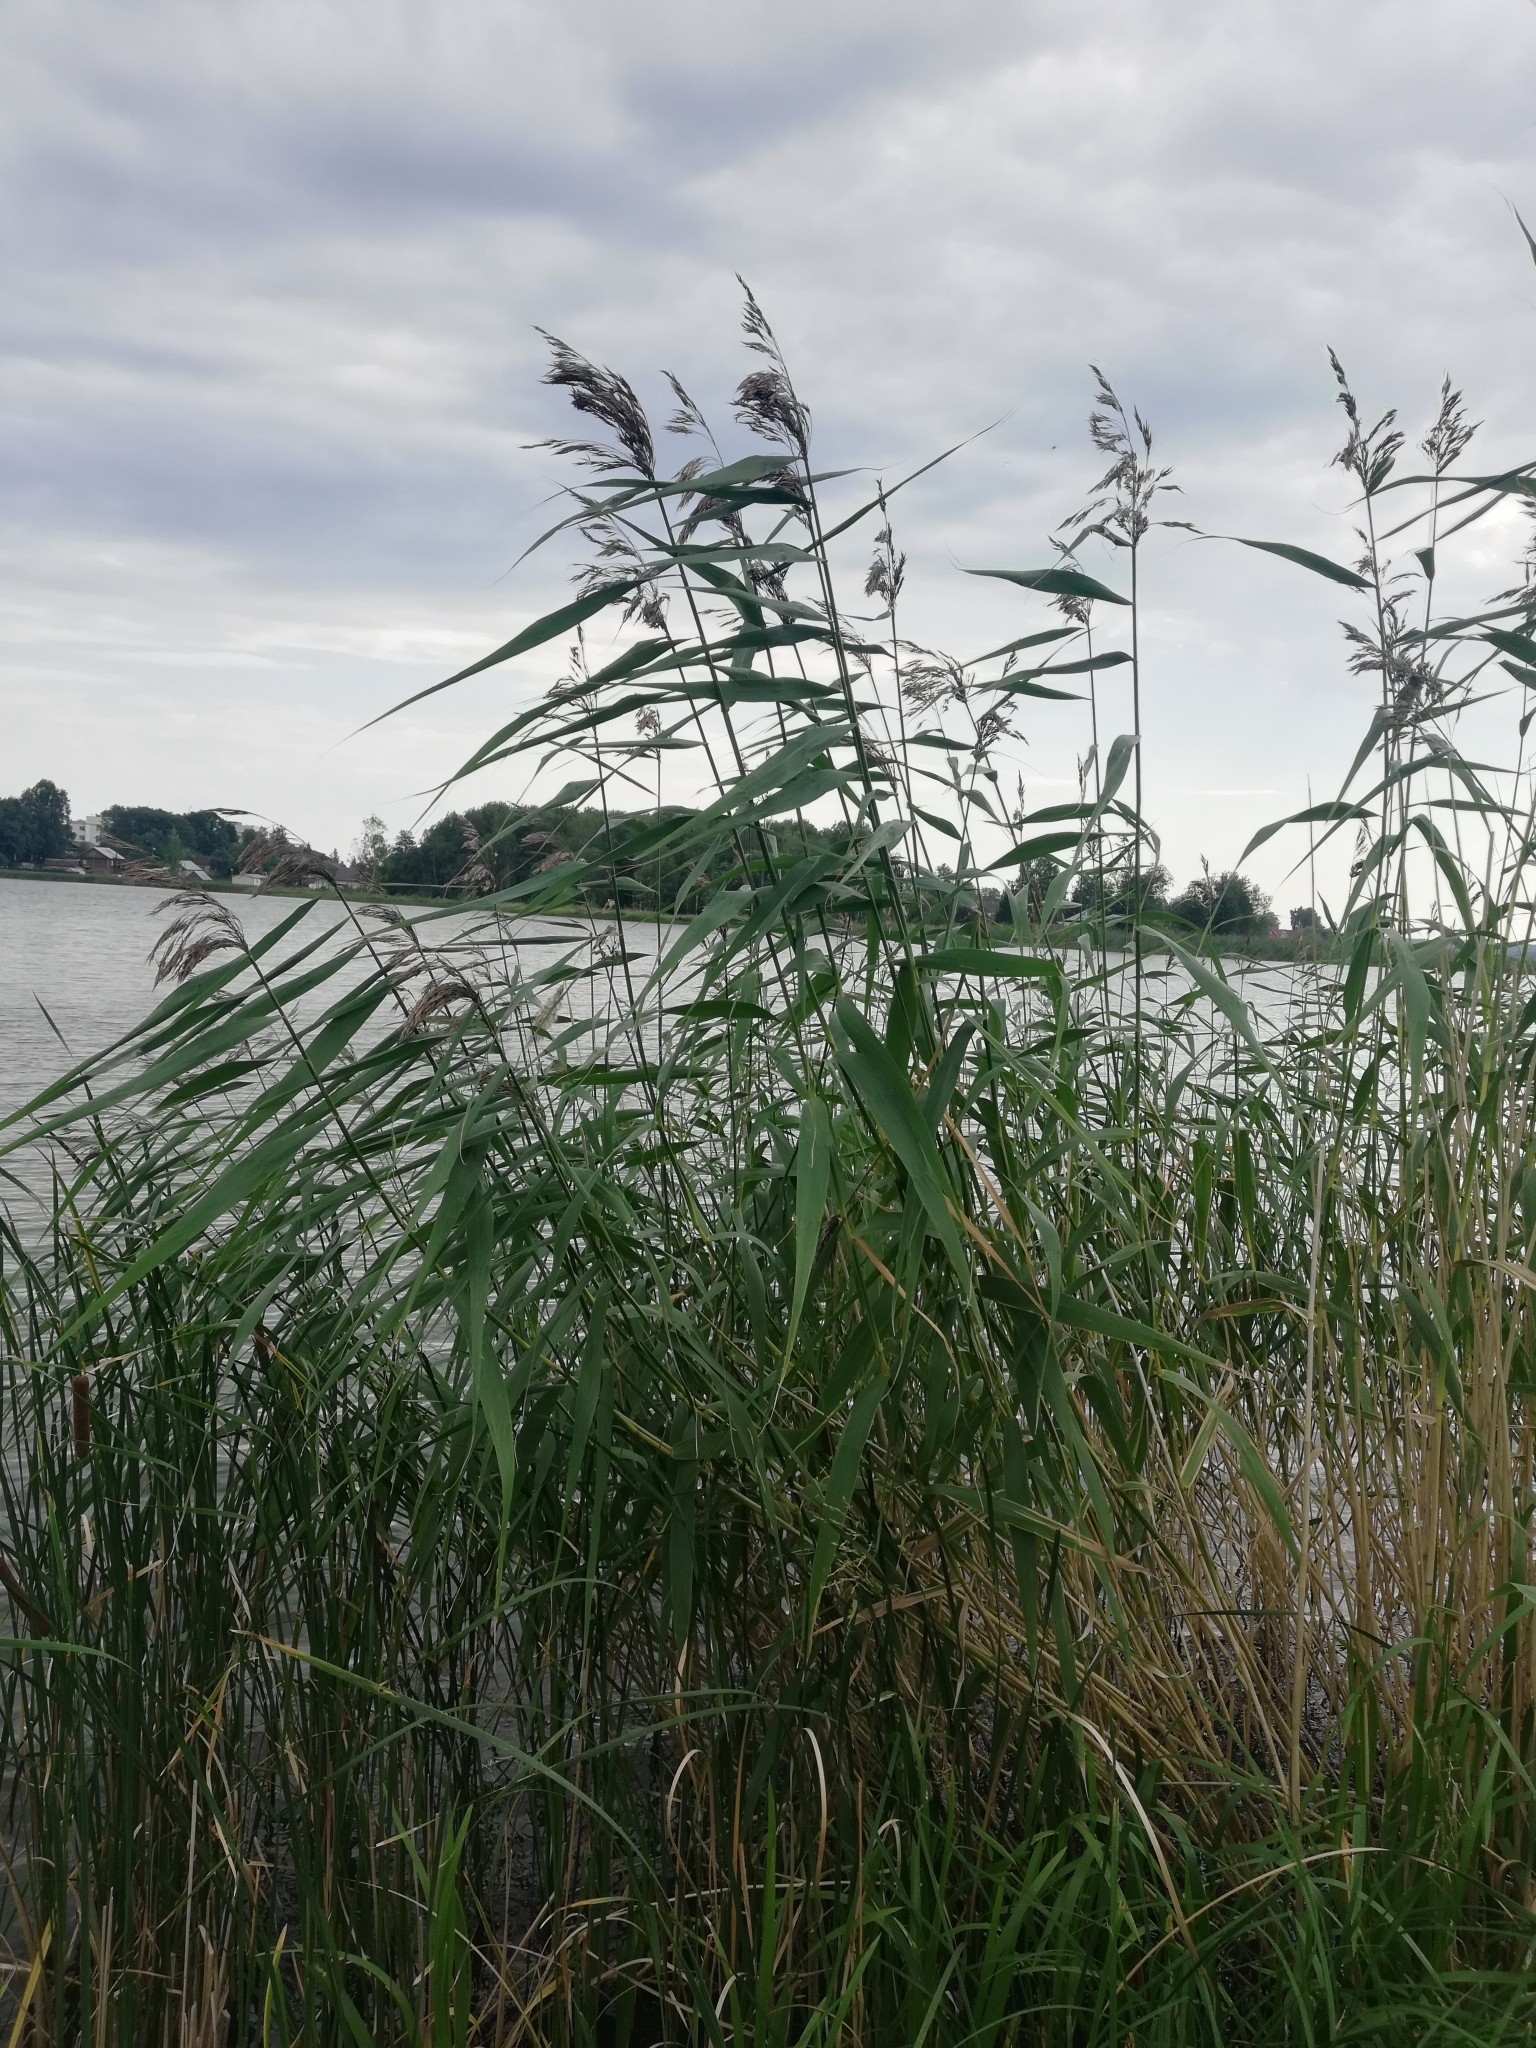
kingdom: Plantae
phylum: Tracheophyta
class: Liliopsida
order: Poales
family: Poaceae
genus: Phragmites
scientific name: Phragmites australis
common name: Common reed
